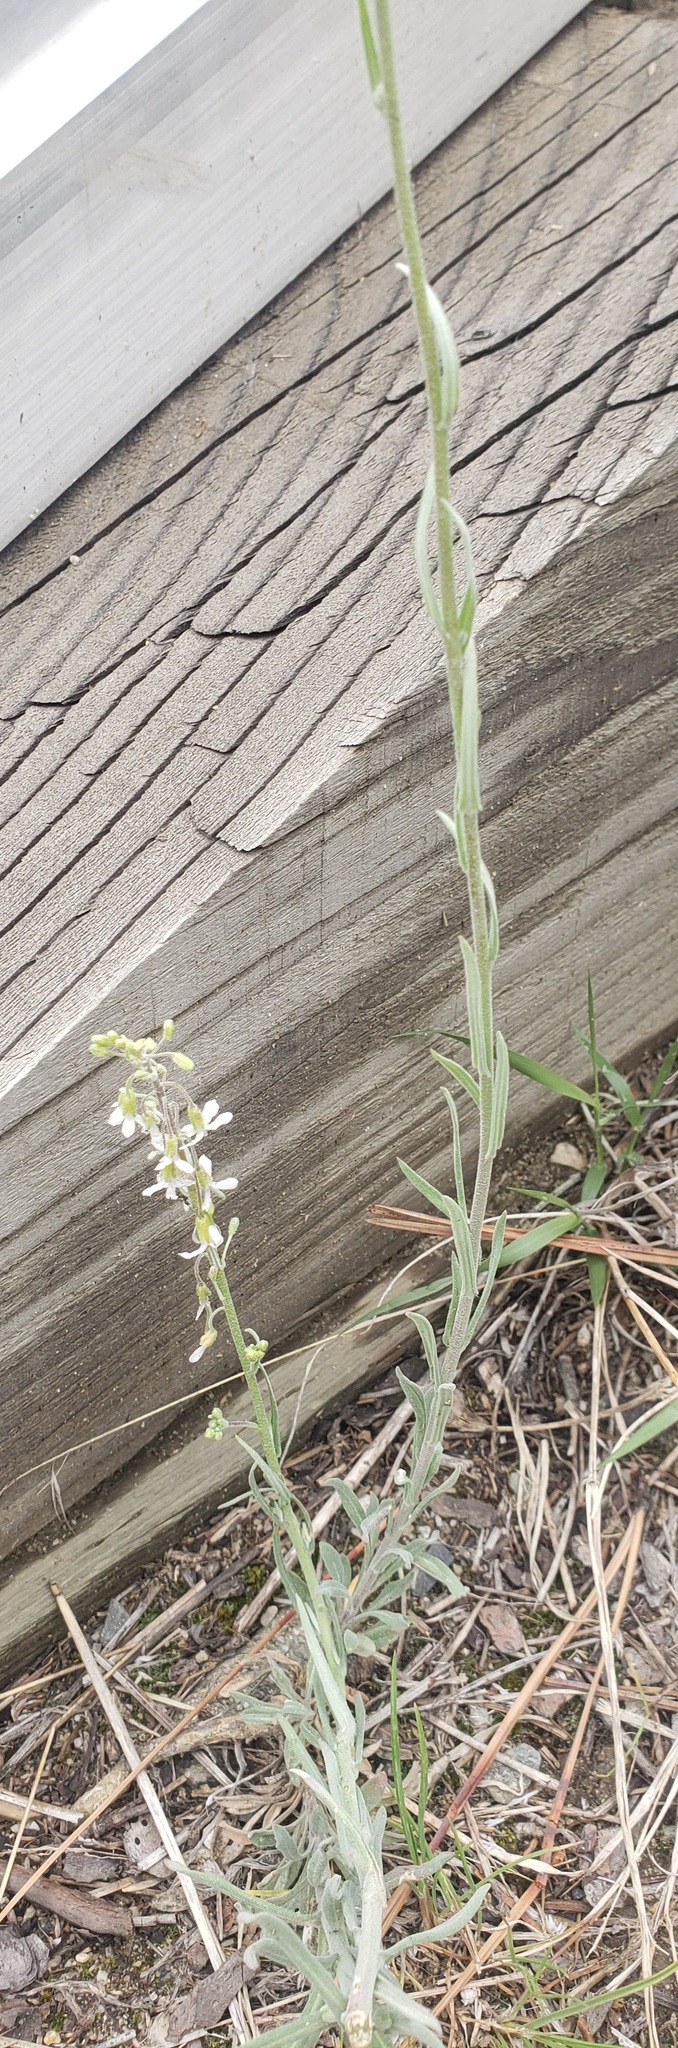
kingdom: Plantae
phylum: Tracheophyta
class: Magnoliopsida
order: Brassicales
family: Brassicaceae
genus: Boechera
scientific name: Boechera retrofracta
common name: Dangling suncress
